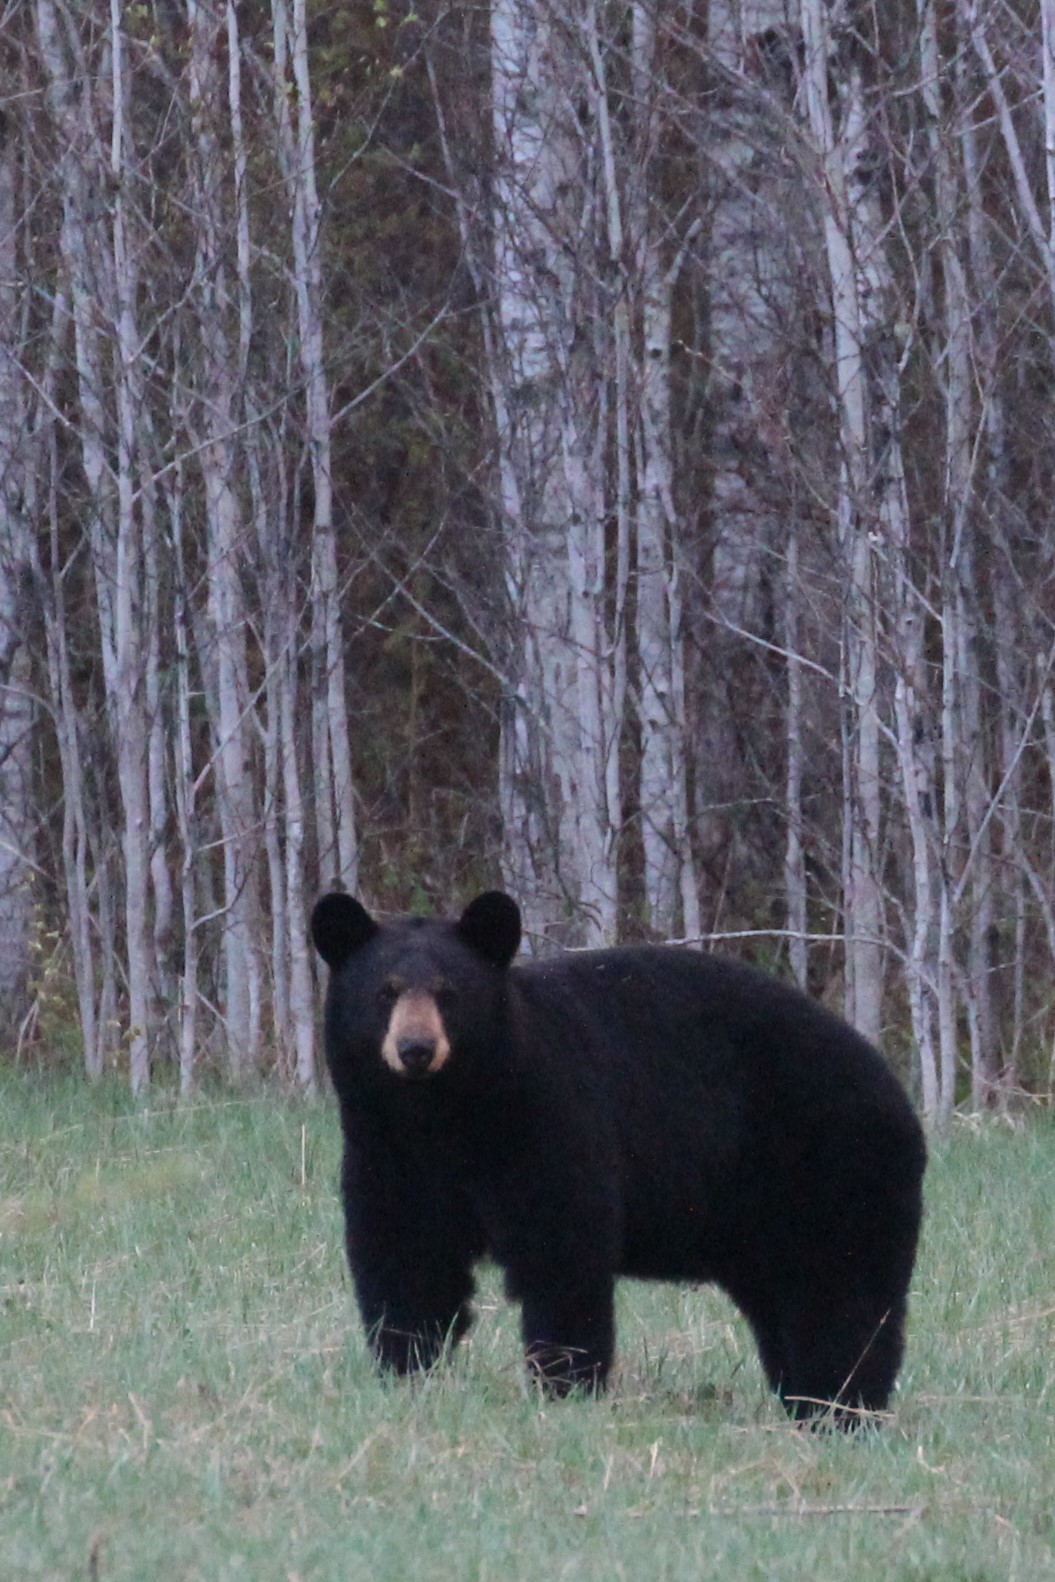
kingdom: Animalia
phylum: Chordata
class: Mammalia
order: Carnivora
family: Ursidae
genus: Ursus
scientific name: Ursus americanus
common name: American black bear
